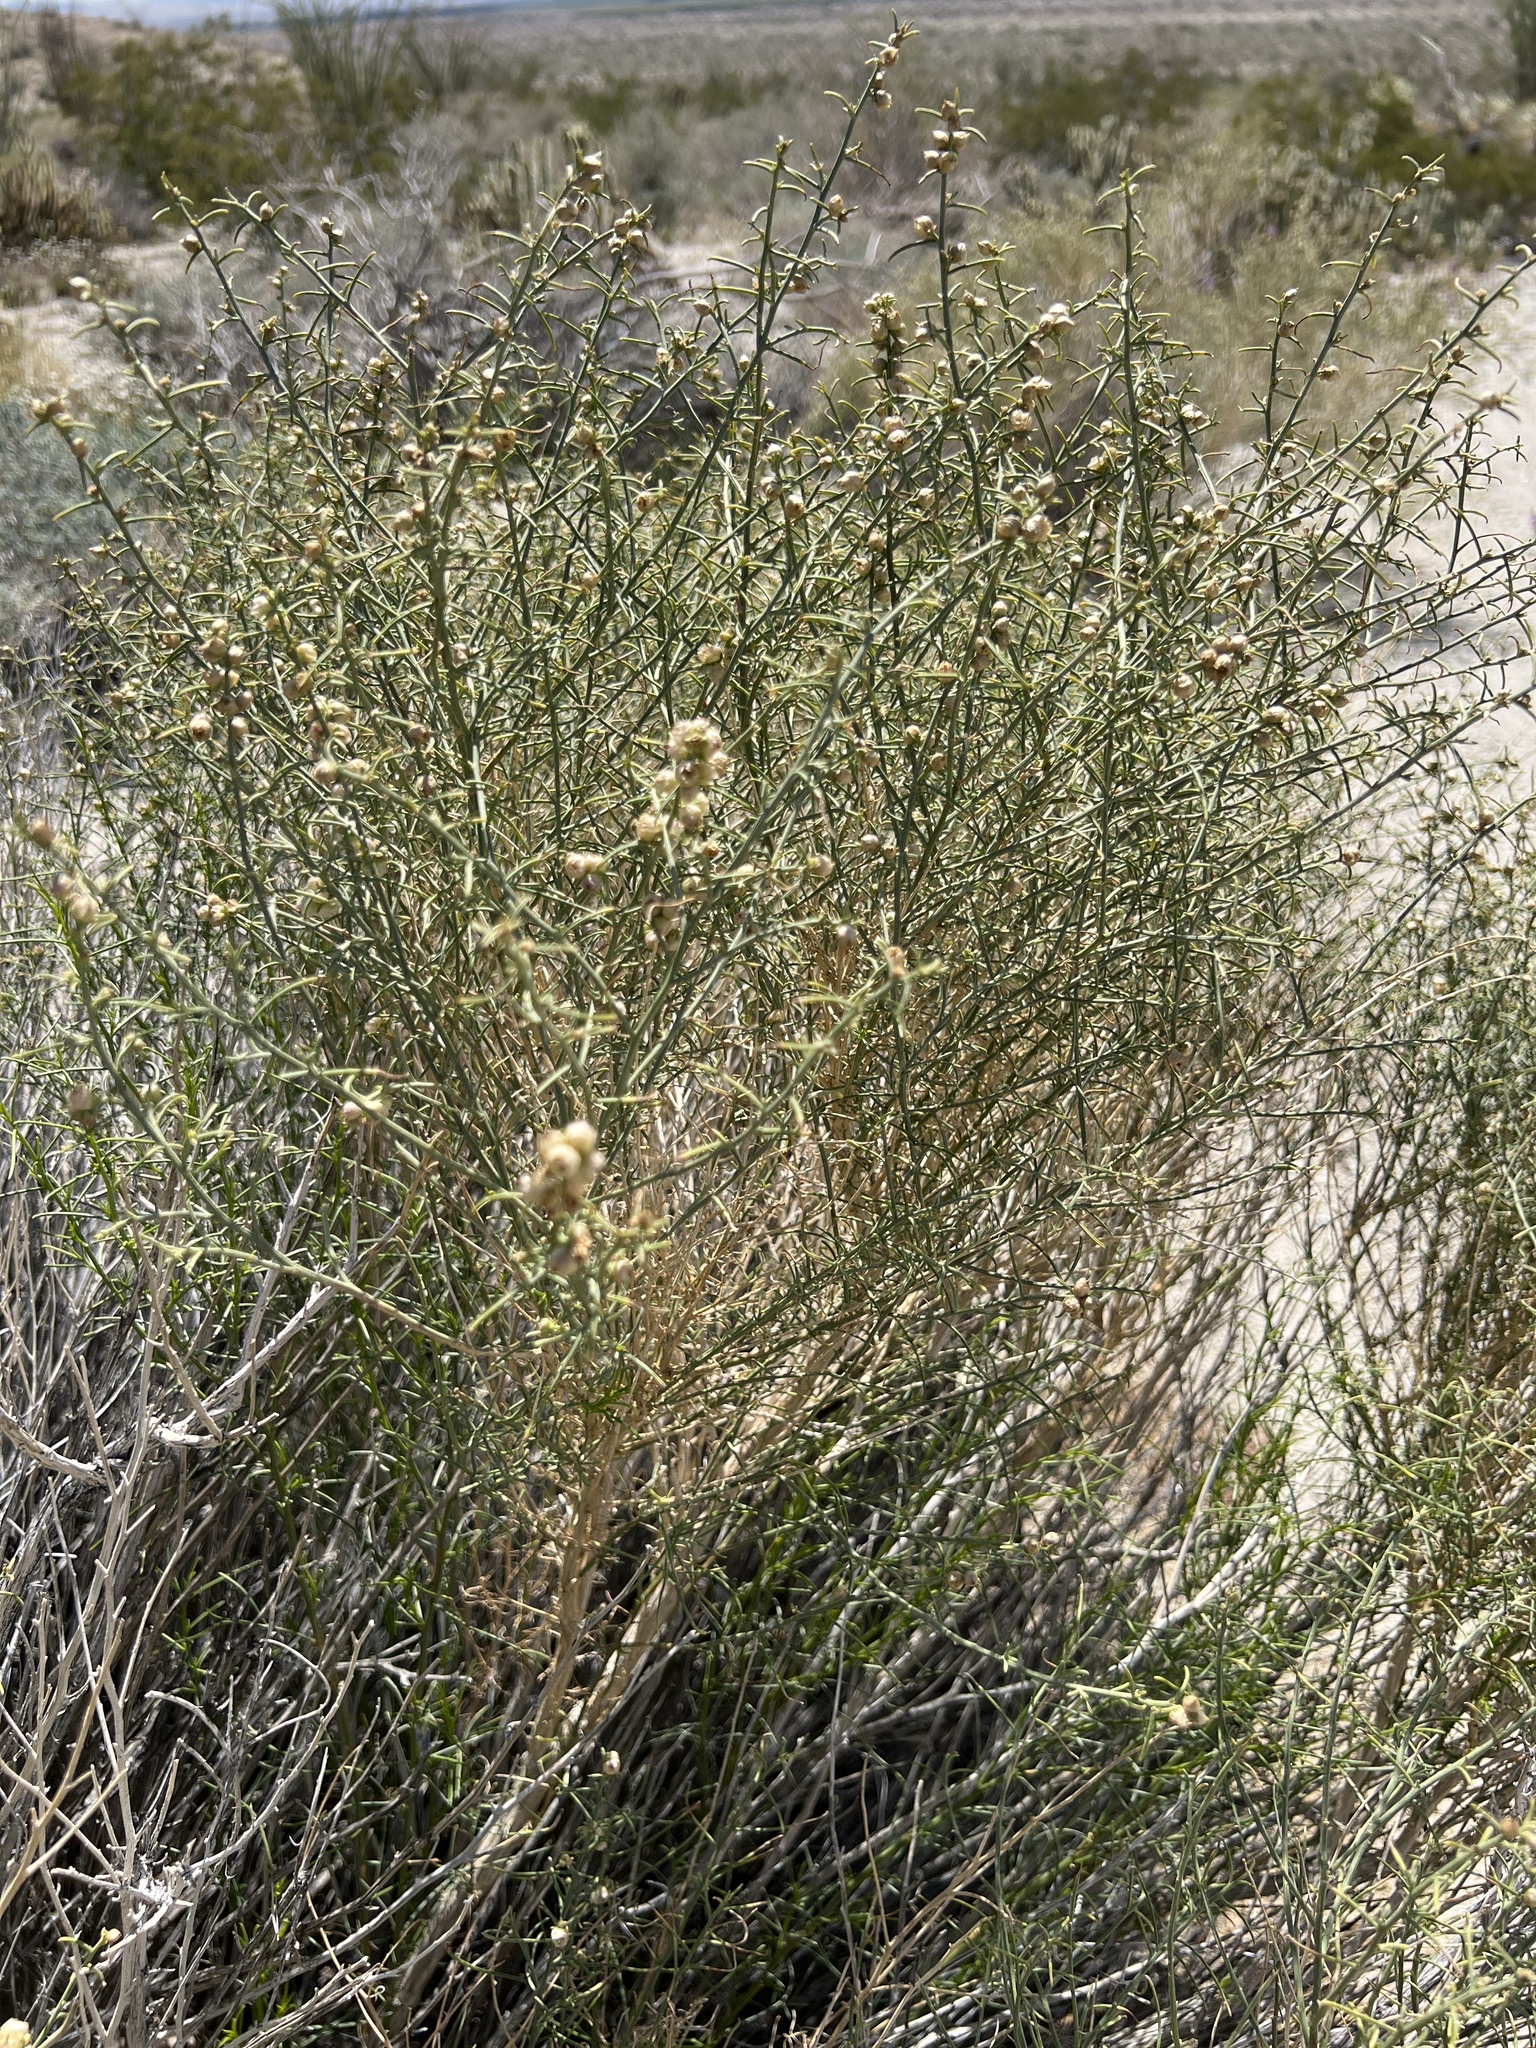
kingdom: Plantae
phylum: Tracheophyta
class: Magnoliopsida
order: Asterales
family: Asteraceae
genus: Ambrosia
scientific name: Ambrosia salsola
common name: Burrobrush
